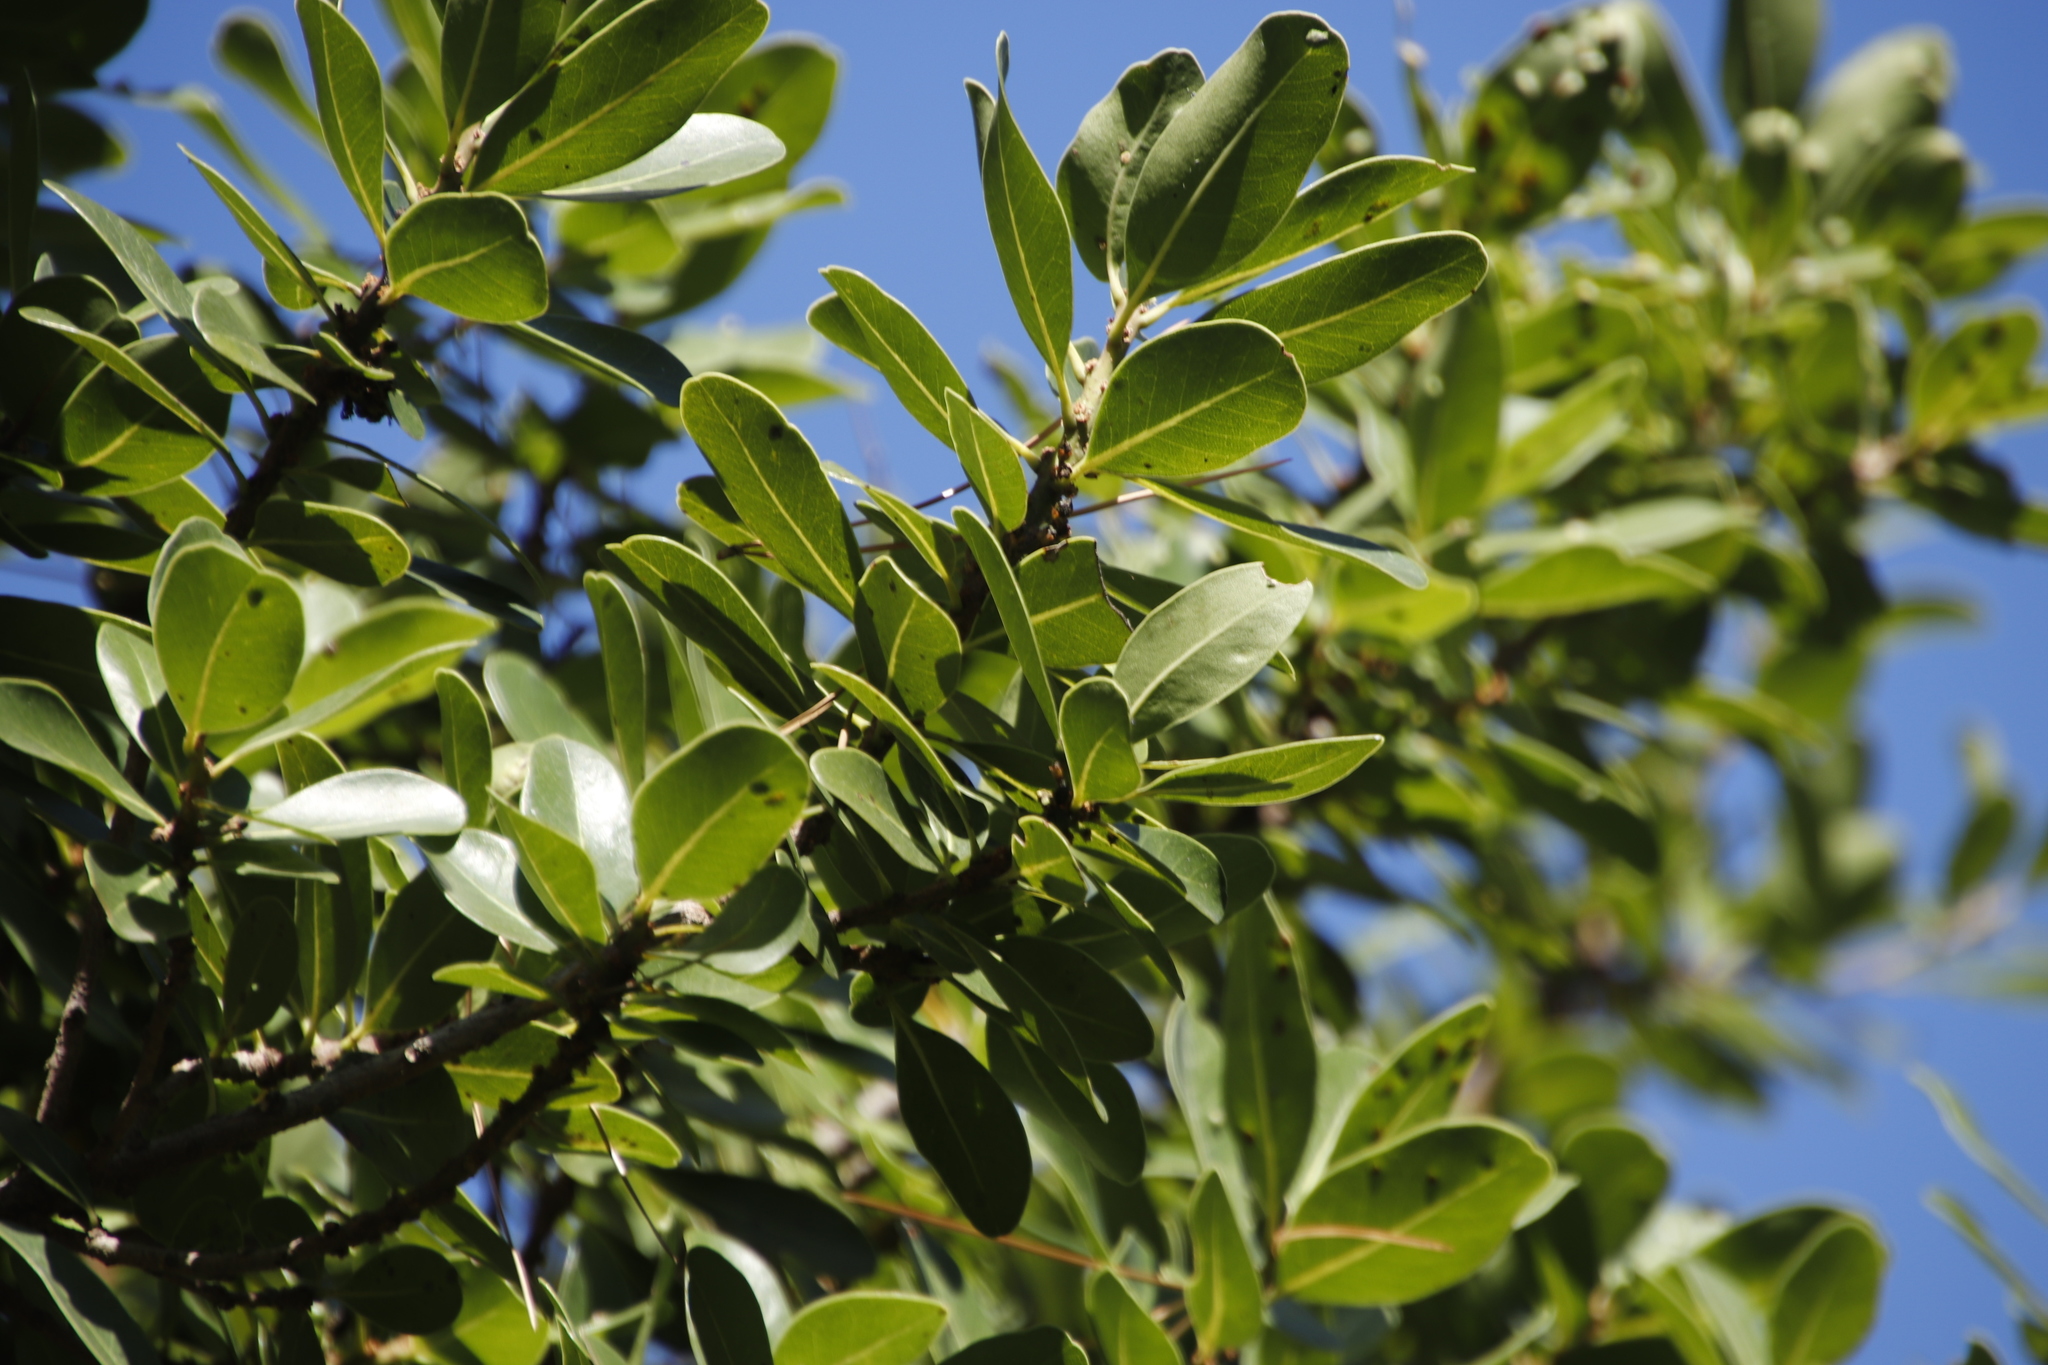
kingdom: Plantae
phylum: Tracheophyta
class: Magnoliopsida
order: Ericales
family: Sapotaceae
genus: Sideroxylon
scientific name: Sideroxylon inerme
